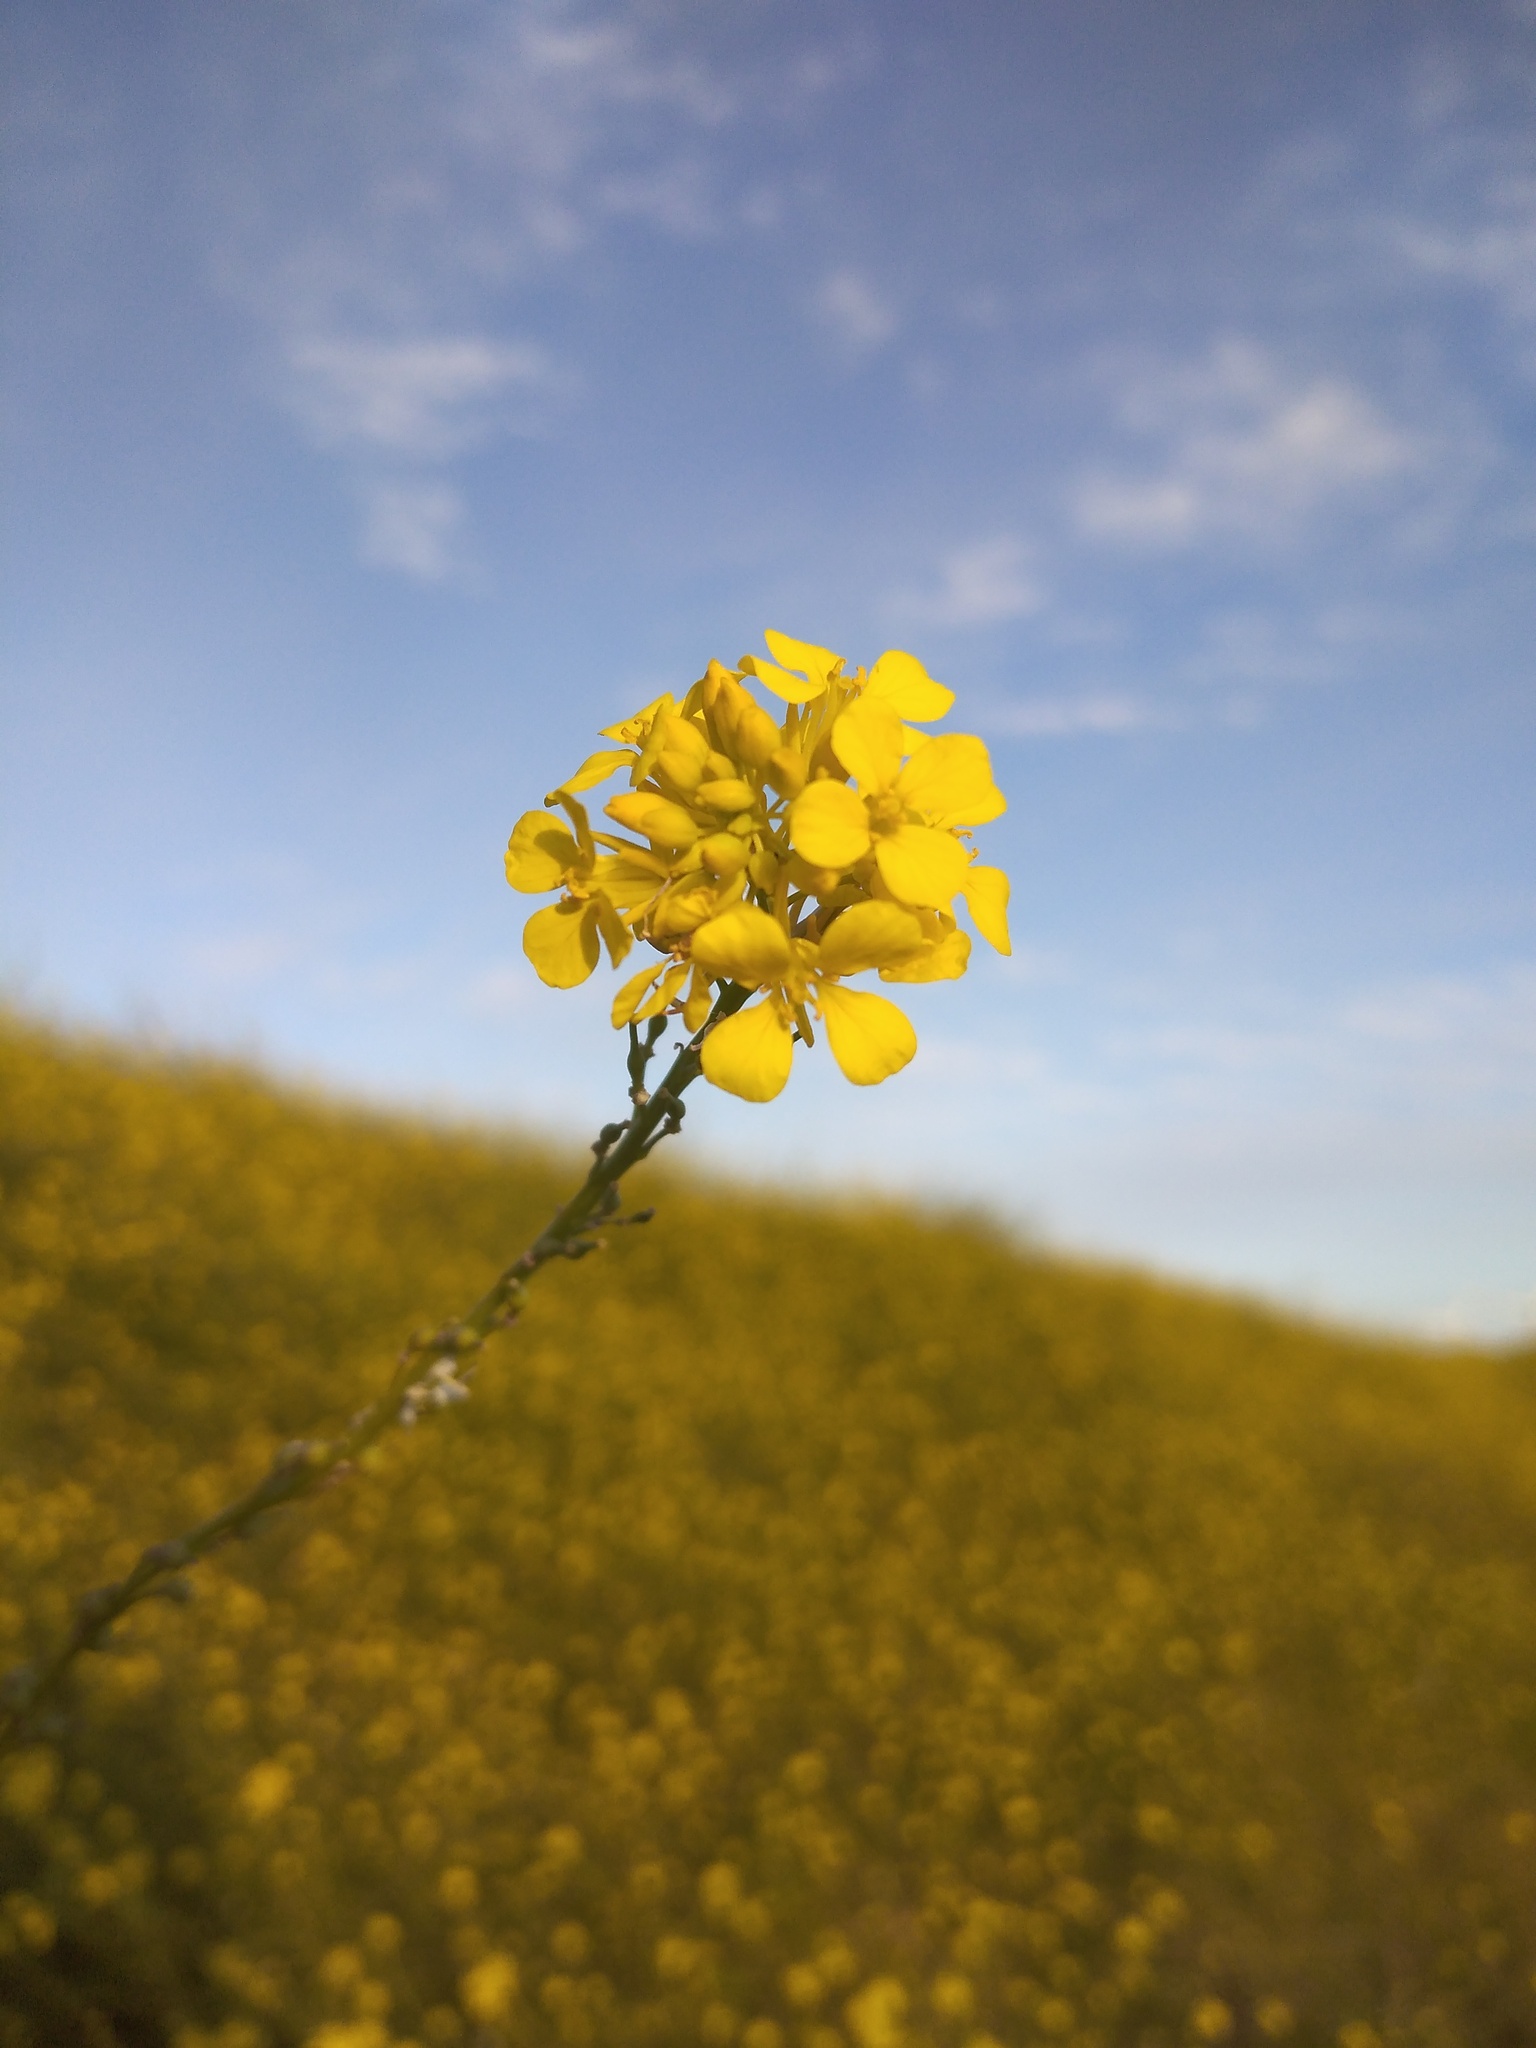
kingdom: Plantae
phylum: Tracheophyta
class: Magnoliopsida
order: Brassicales
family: Brassicaceae
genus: Rapistrum
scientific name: Rapistrum rugosum
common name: Annual bastardcabbage
